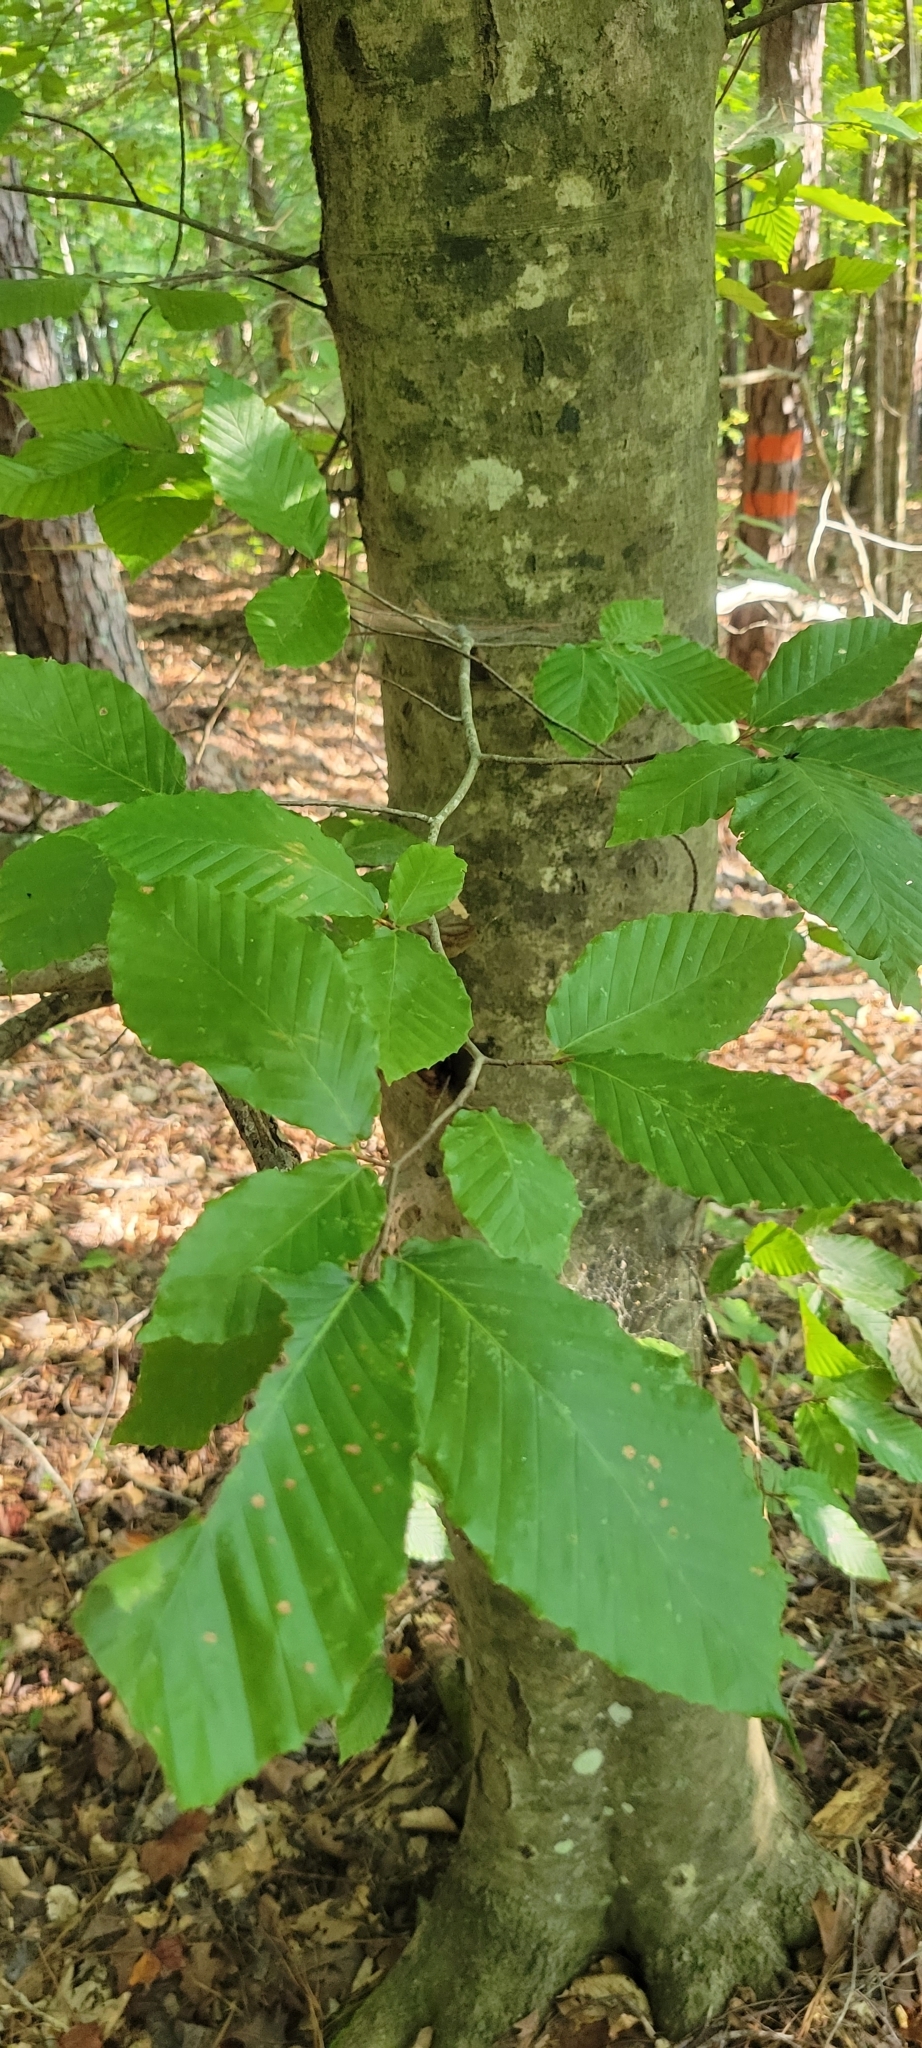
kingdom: Plantae
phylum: Tracheophyta
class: Magnoliopsida
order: Fagales
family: Fagaceae
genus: Fagus
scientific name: Fagus grandifolia
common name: American beech
